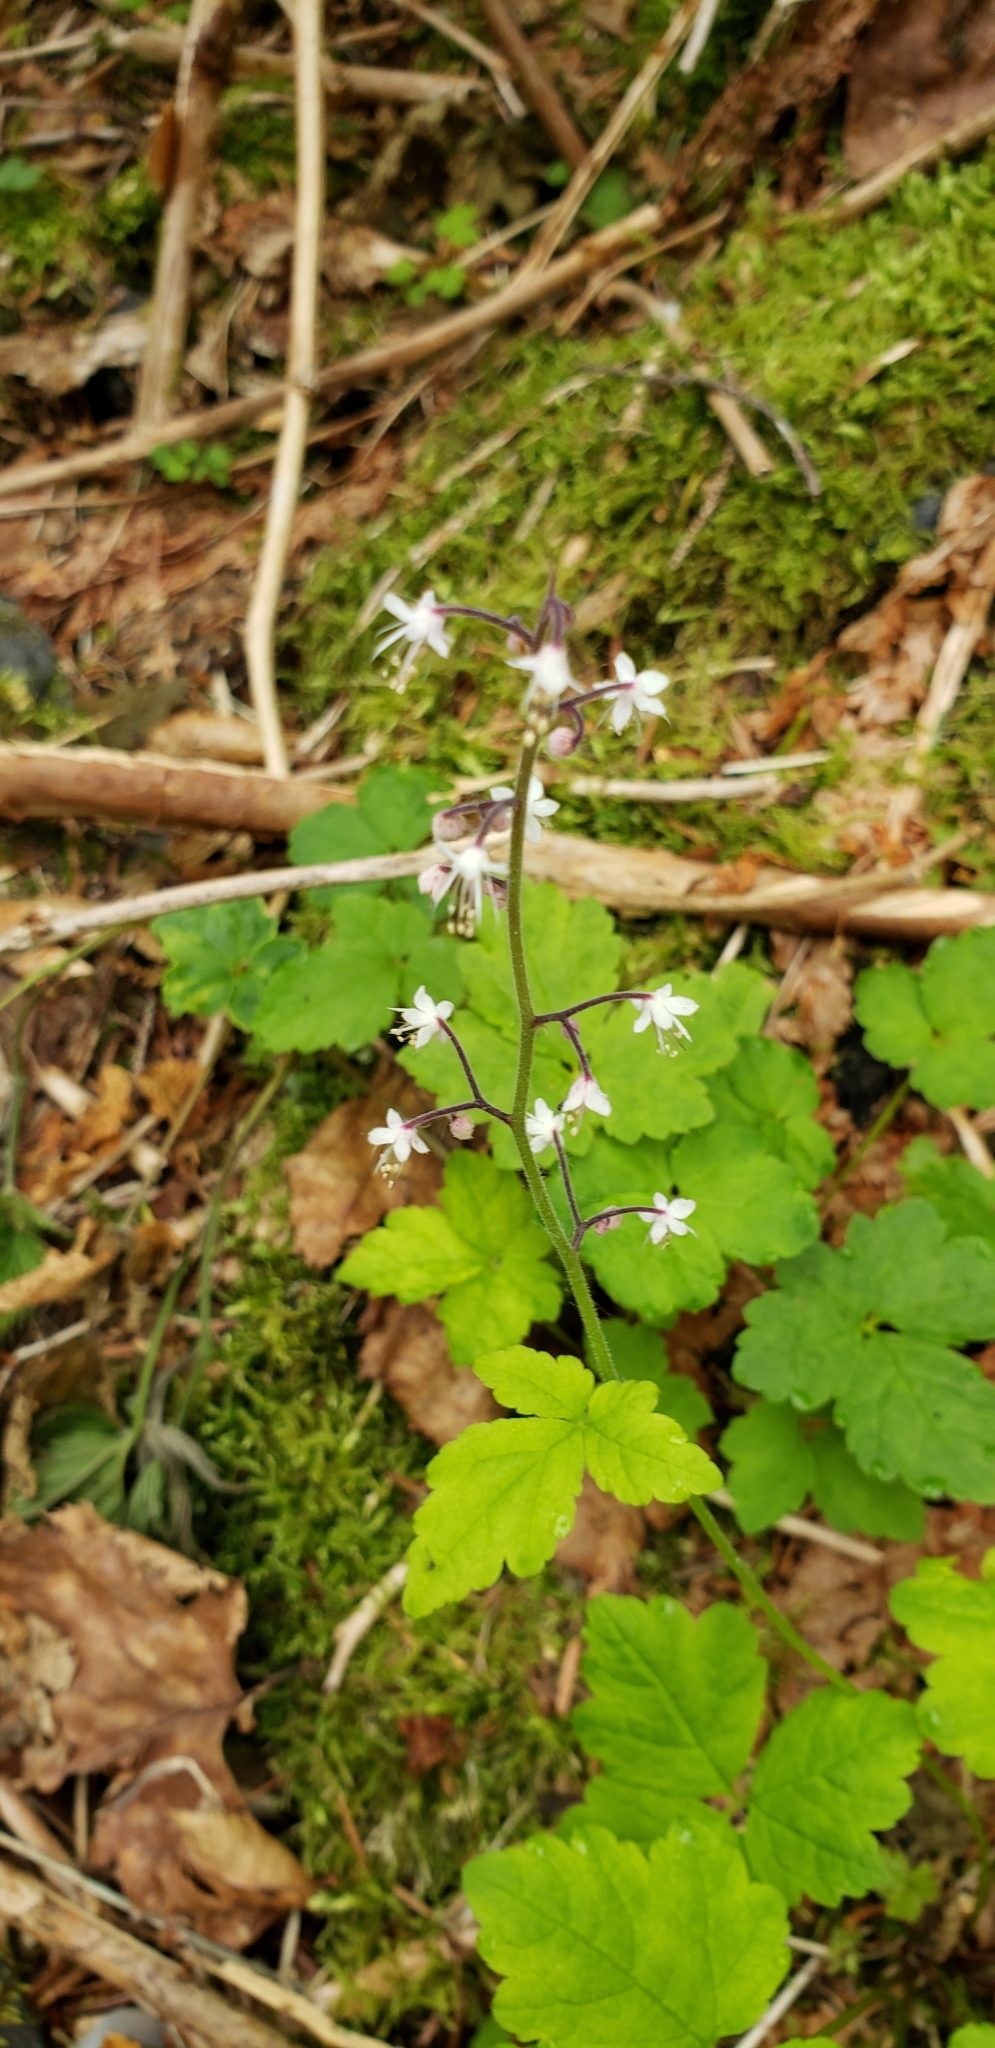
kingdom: Plantae
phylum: Tracheophyta
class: Magnoliopsida
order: Saxifragales
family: Saxifragaceae
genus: Tiarella
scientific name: Tiarella trifoliata
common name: Sugar-scoop
